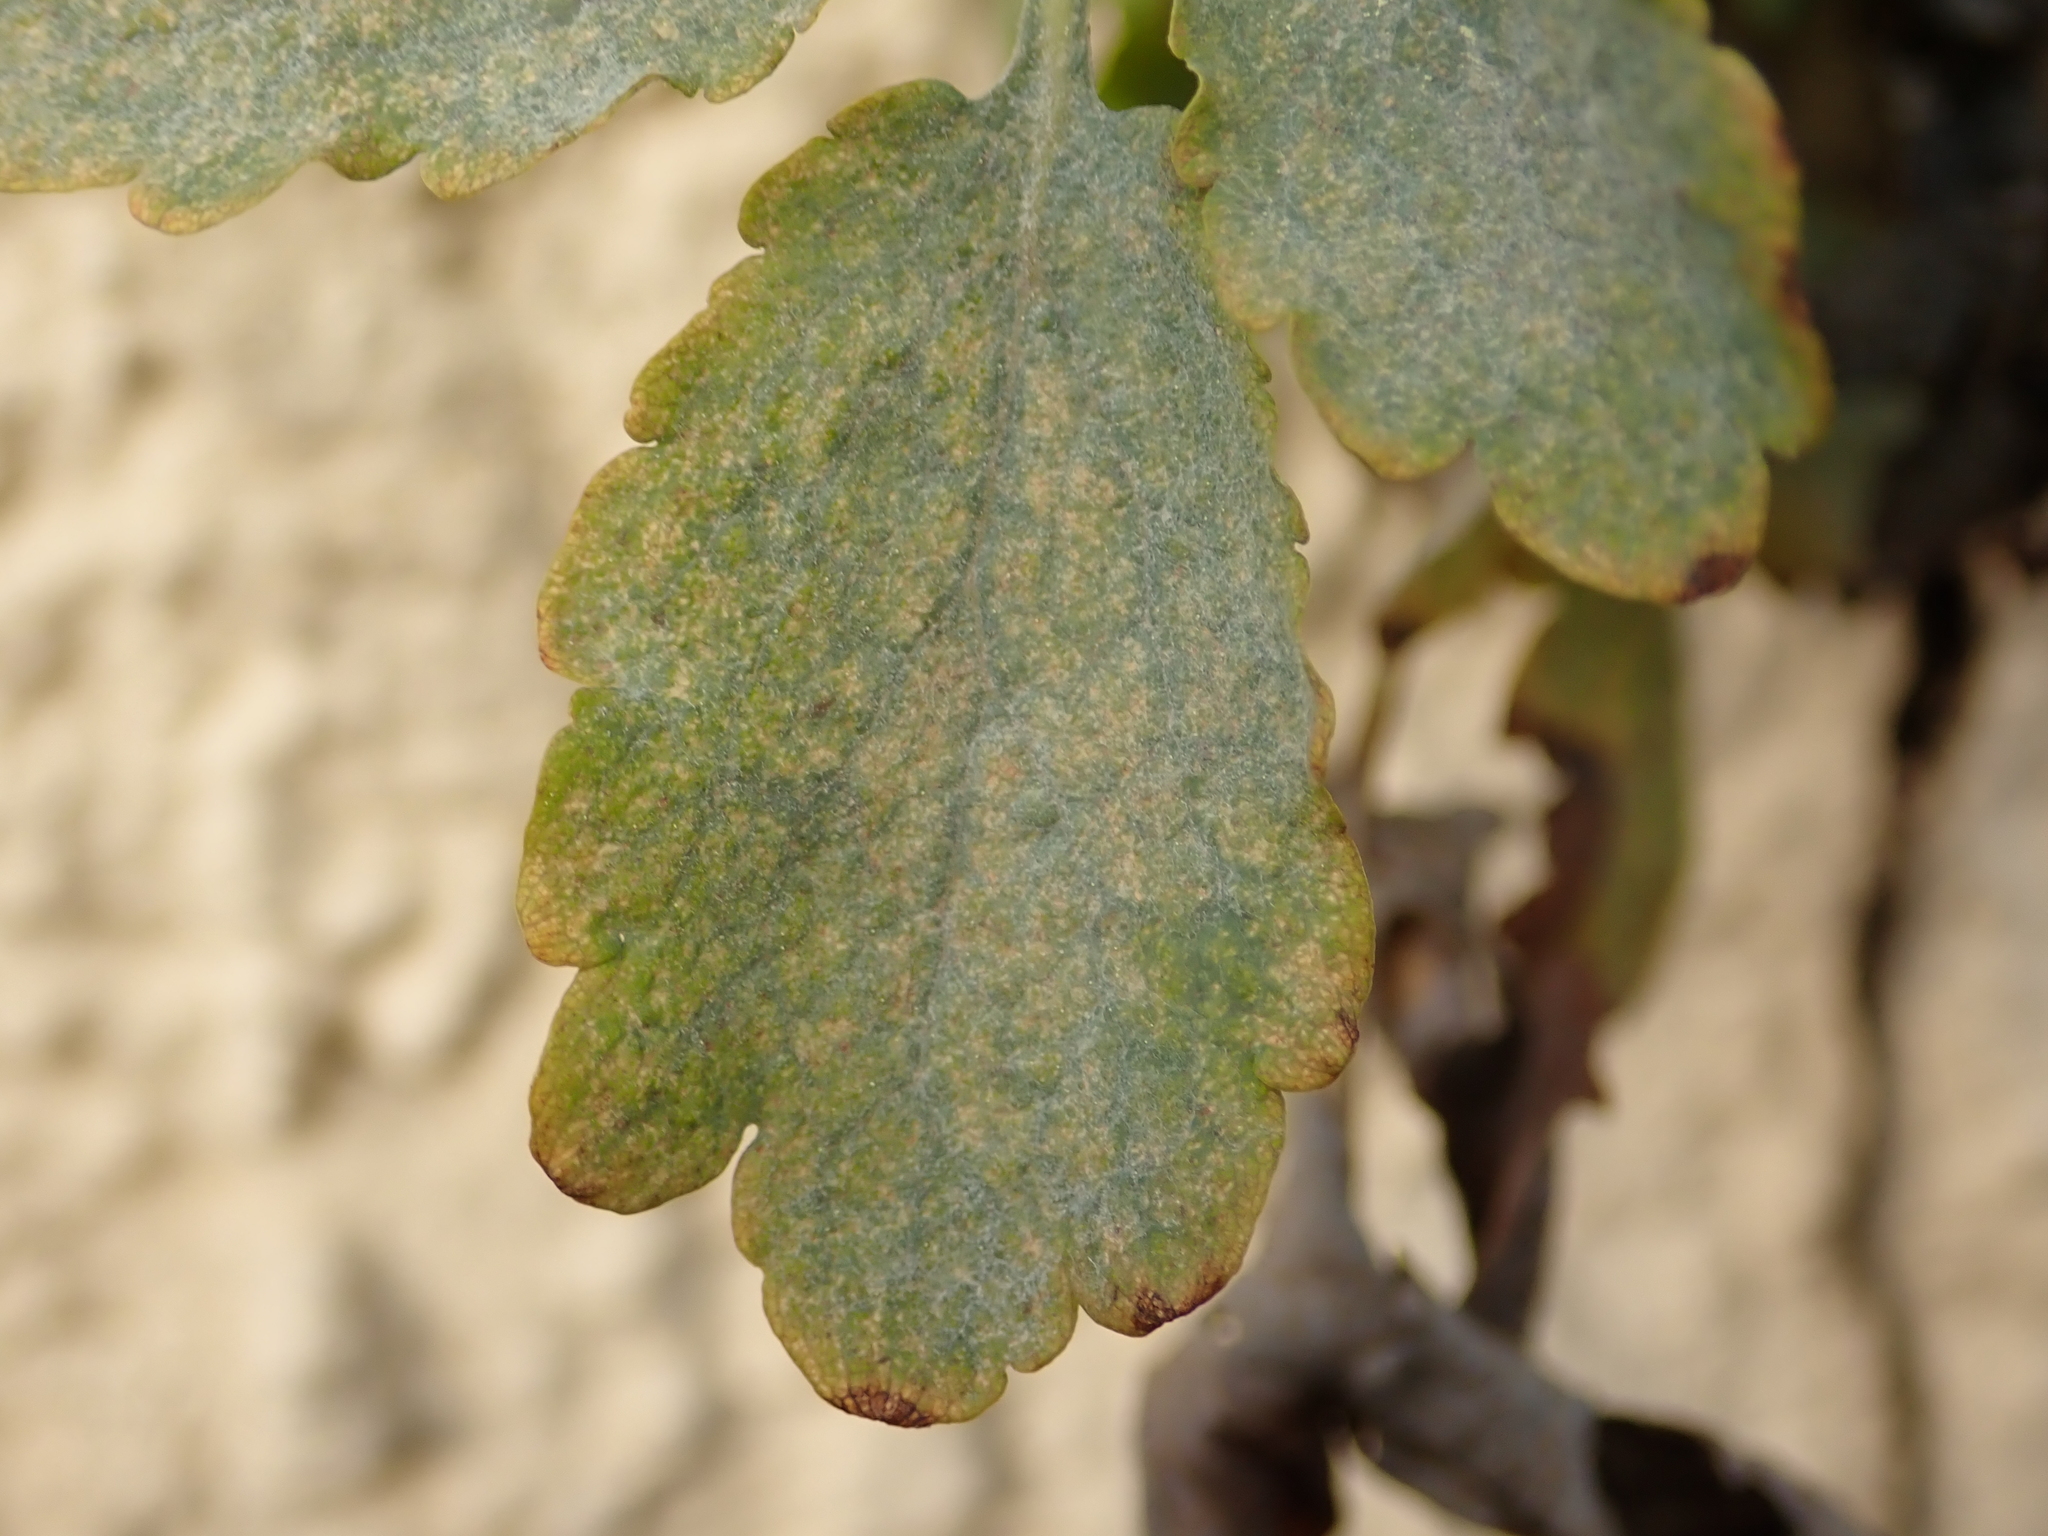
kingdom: Fungi
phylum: Ascomycota
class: Leotiomycetes
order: Helotiales
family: Erysiphaceae
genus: Erysiphe
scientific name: Erysiphe macleayae
